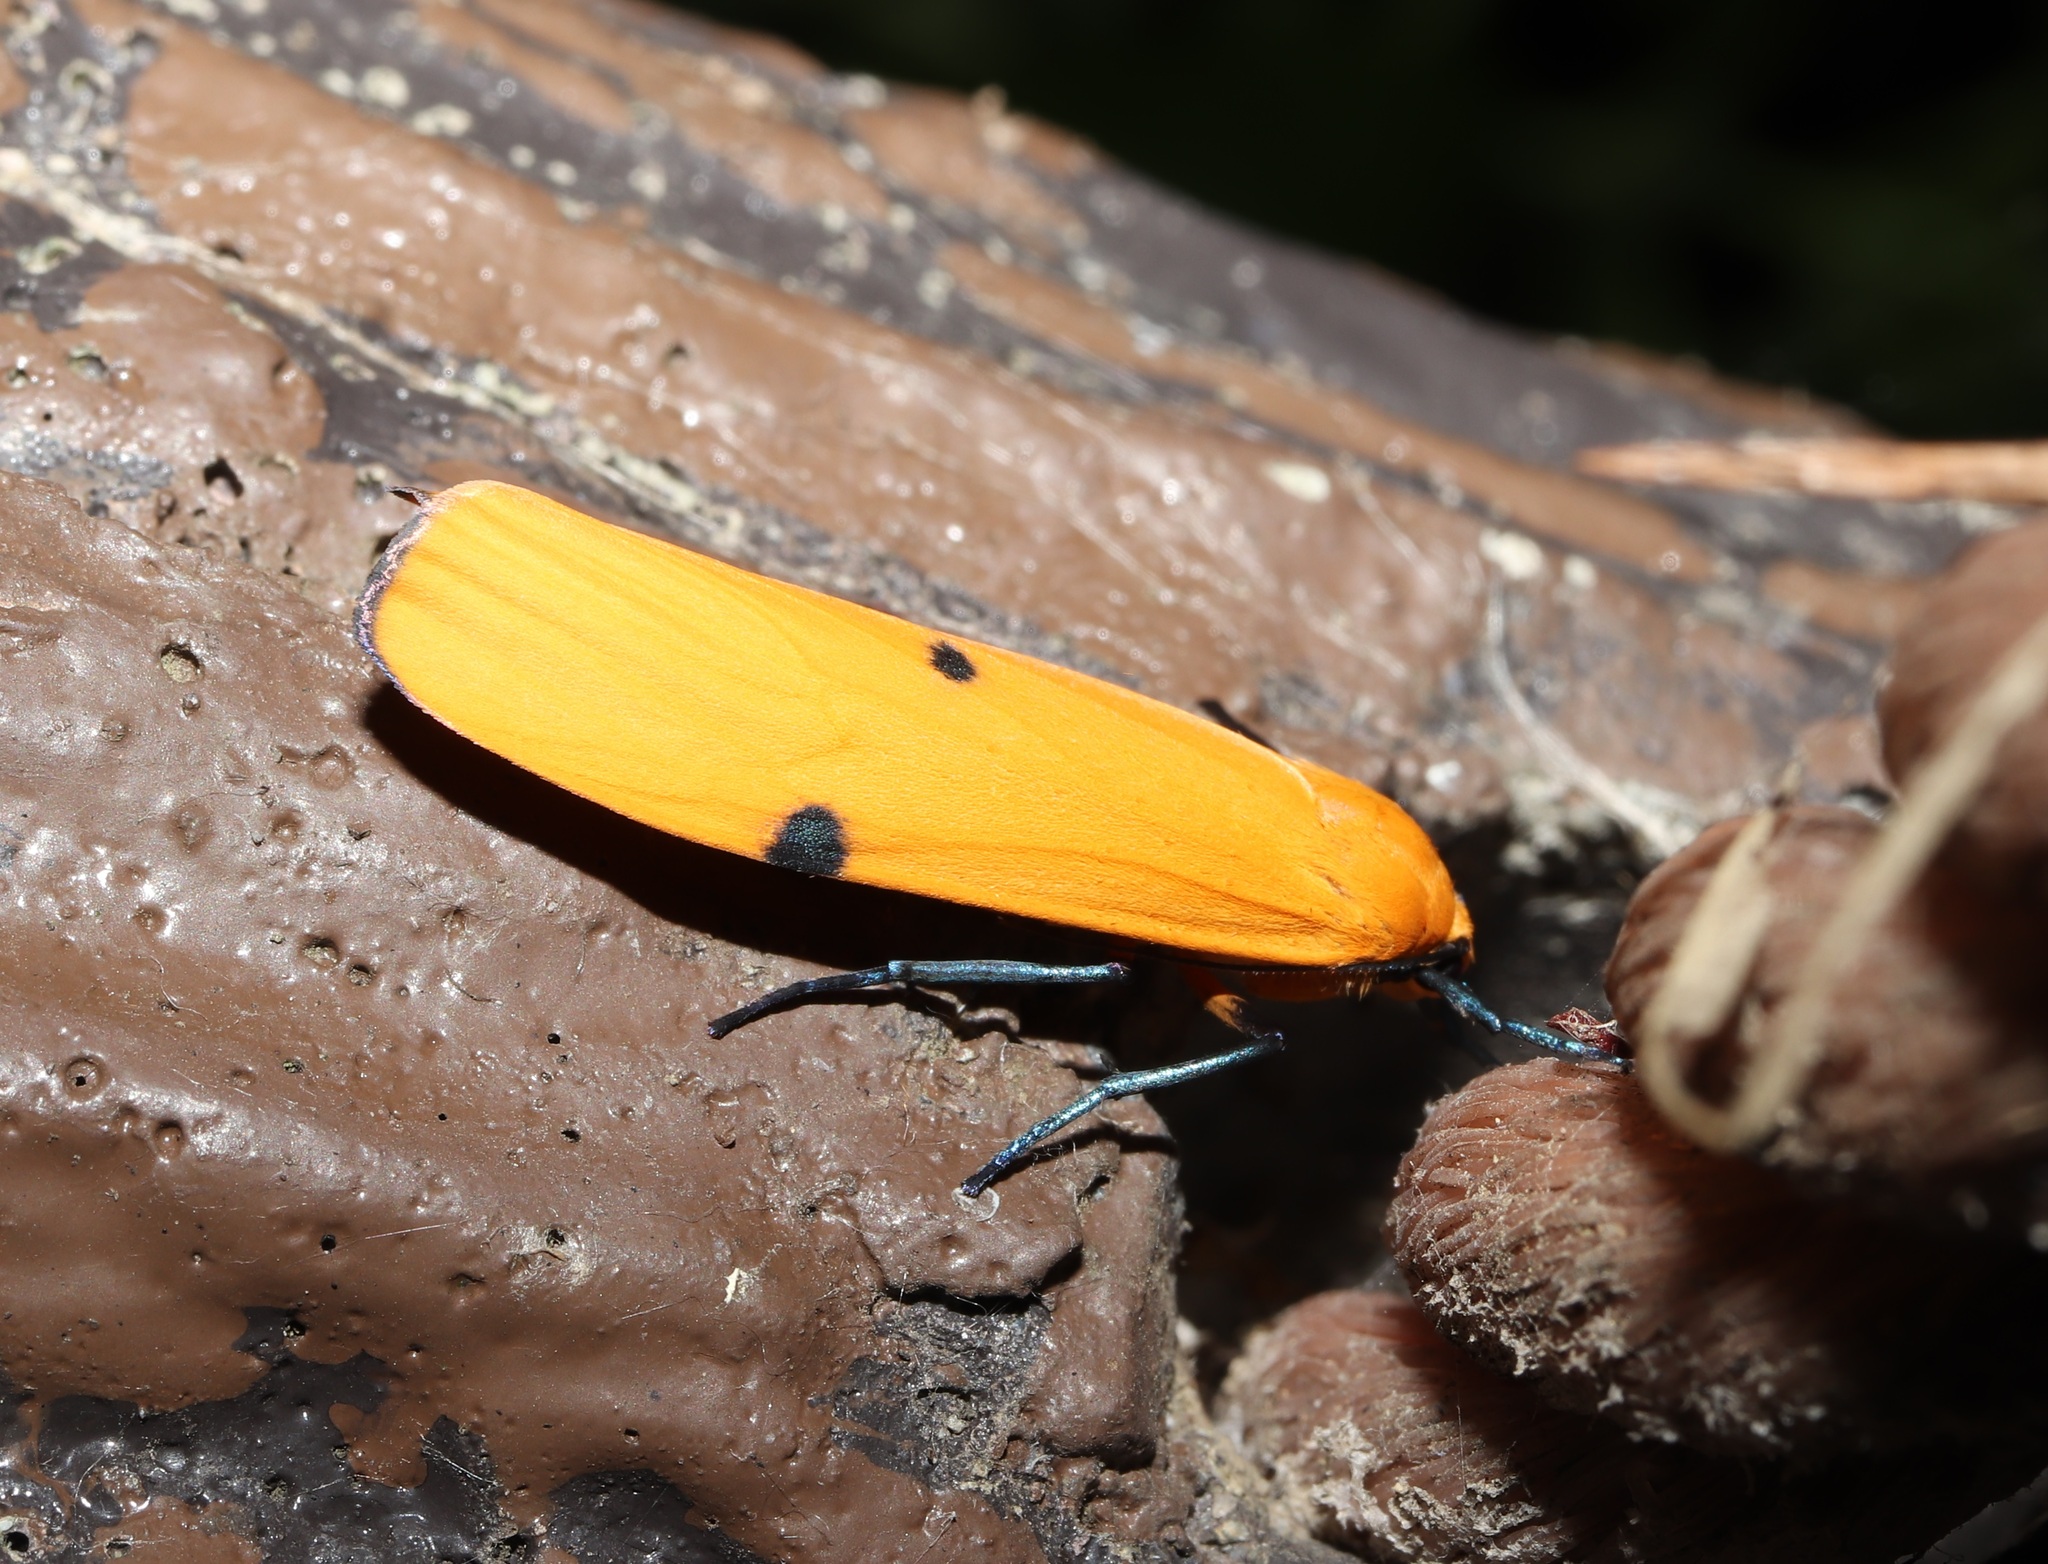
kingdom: Animalia
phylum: Arthropoda
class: Insecta
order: Lepidoptera
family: Erebidae
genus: Lithosia
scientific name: Lithosia quadra
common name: Four-spotted footman
